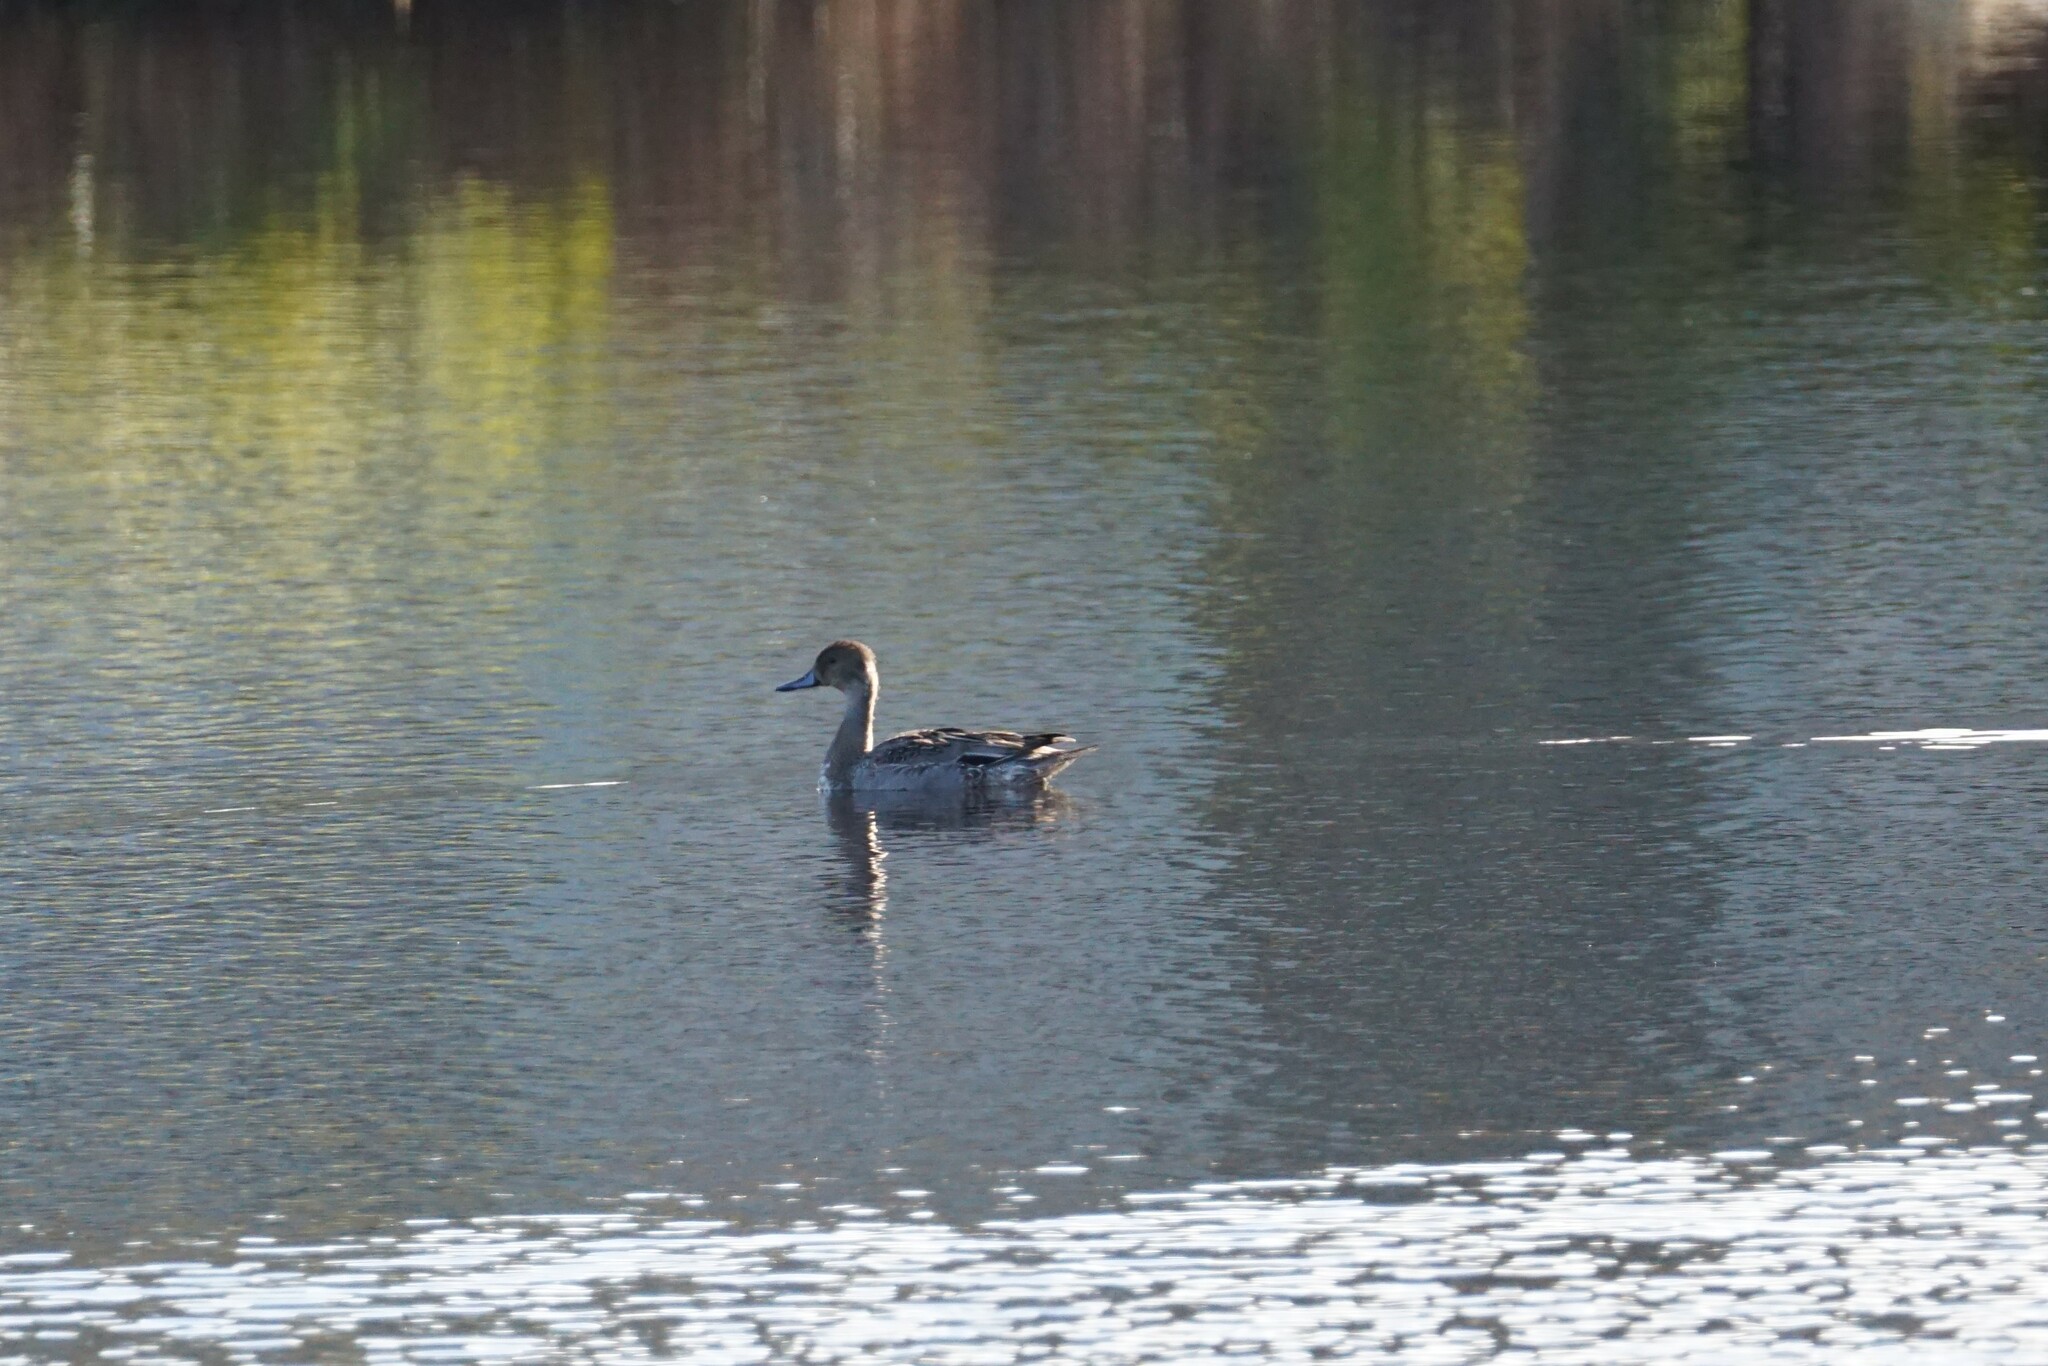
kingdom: Animalia
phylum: Chordata
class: Aves
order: Anseriformes
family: Anatidae
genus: Anas
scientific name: Anas acuta
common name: Northern pintail
